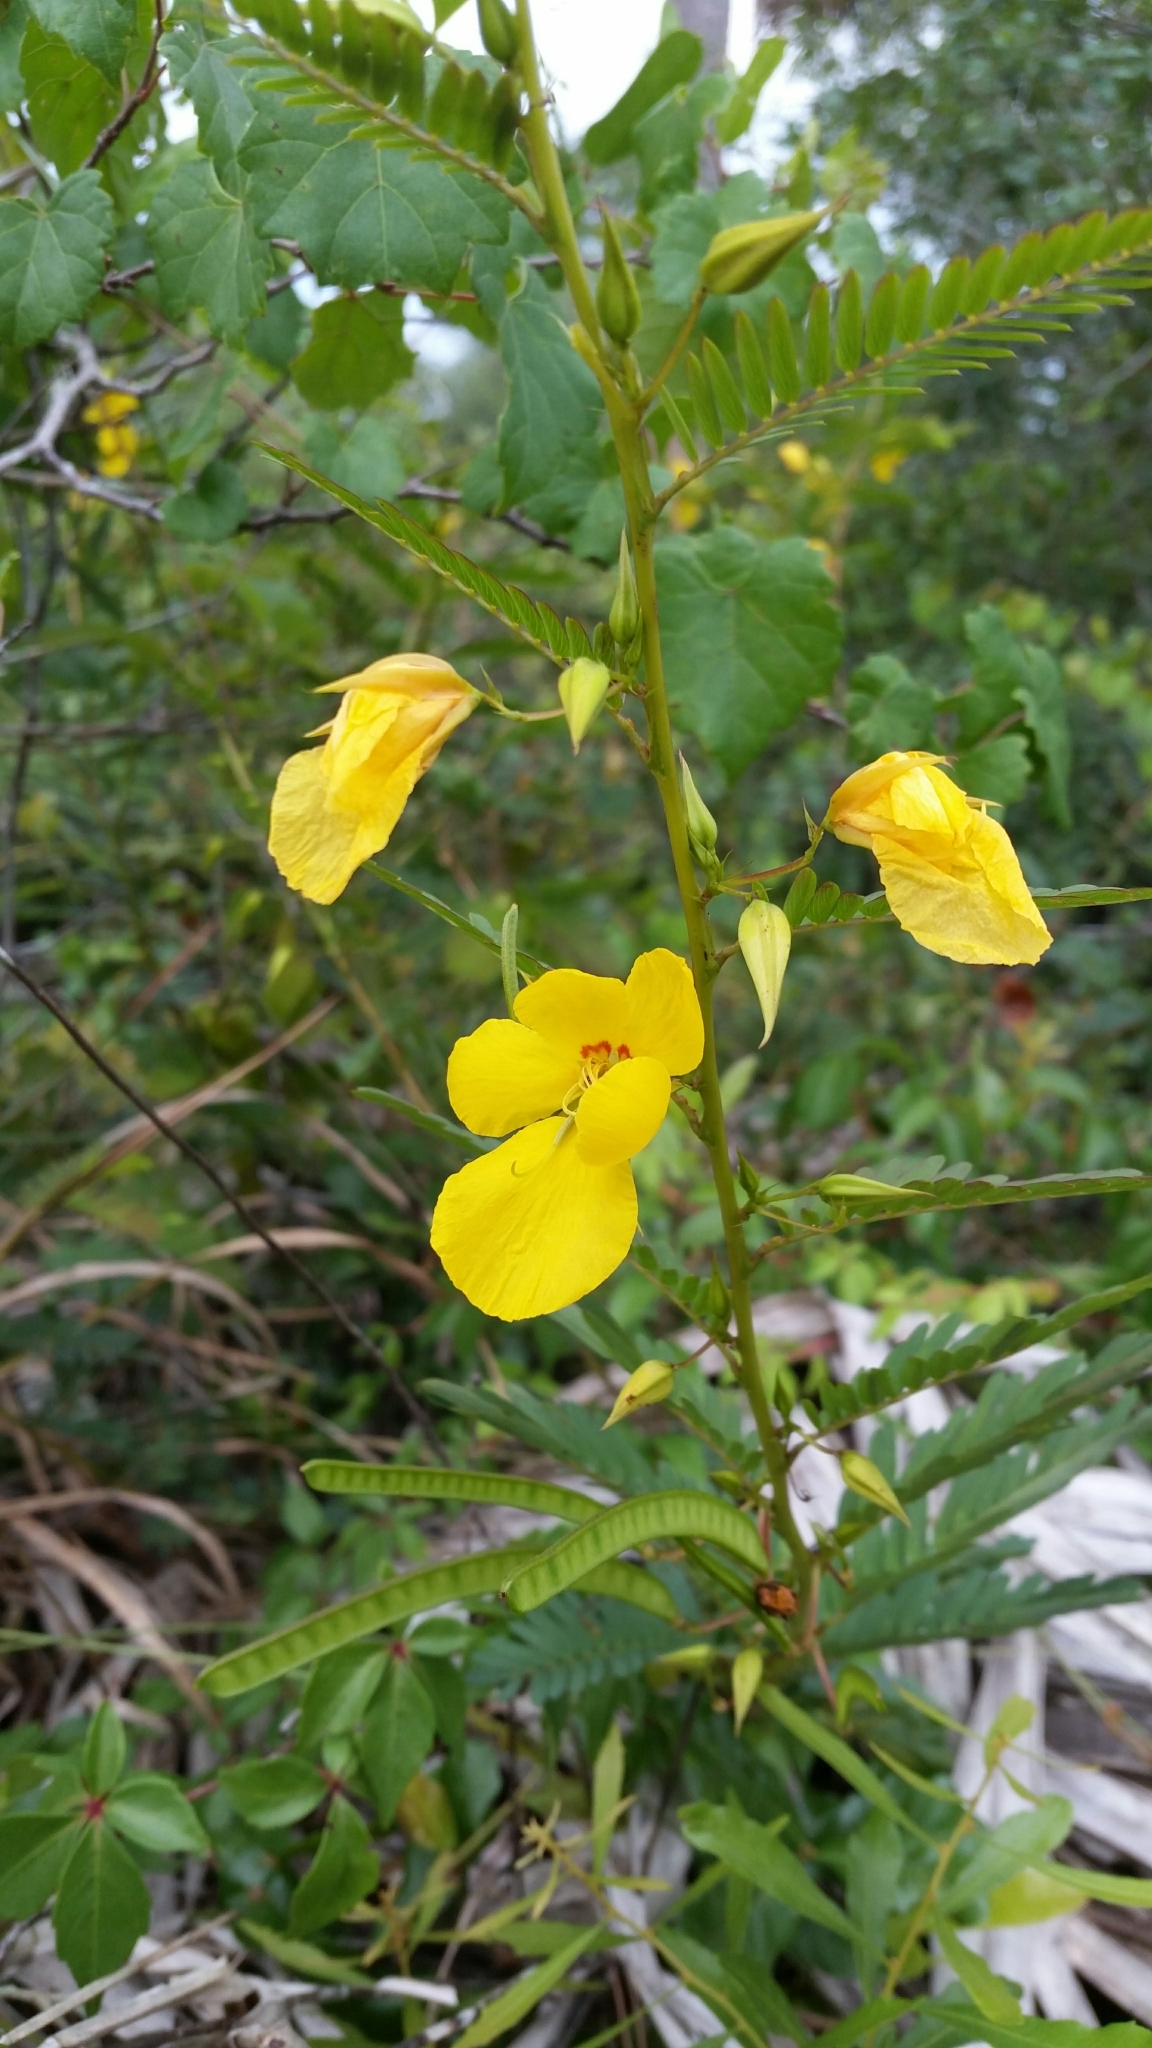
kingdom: Plantae
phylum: Tracheophyta
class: Magnoliopsida
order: Fabales
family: Fabaceae
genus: Chamaecrista
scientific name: Chamaecrista fasciculata
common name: Golden cassia
